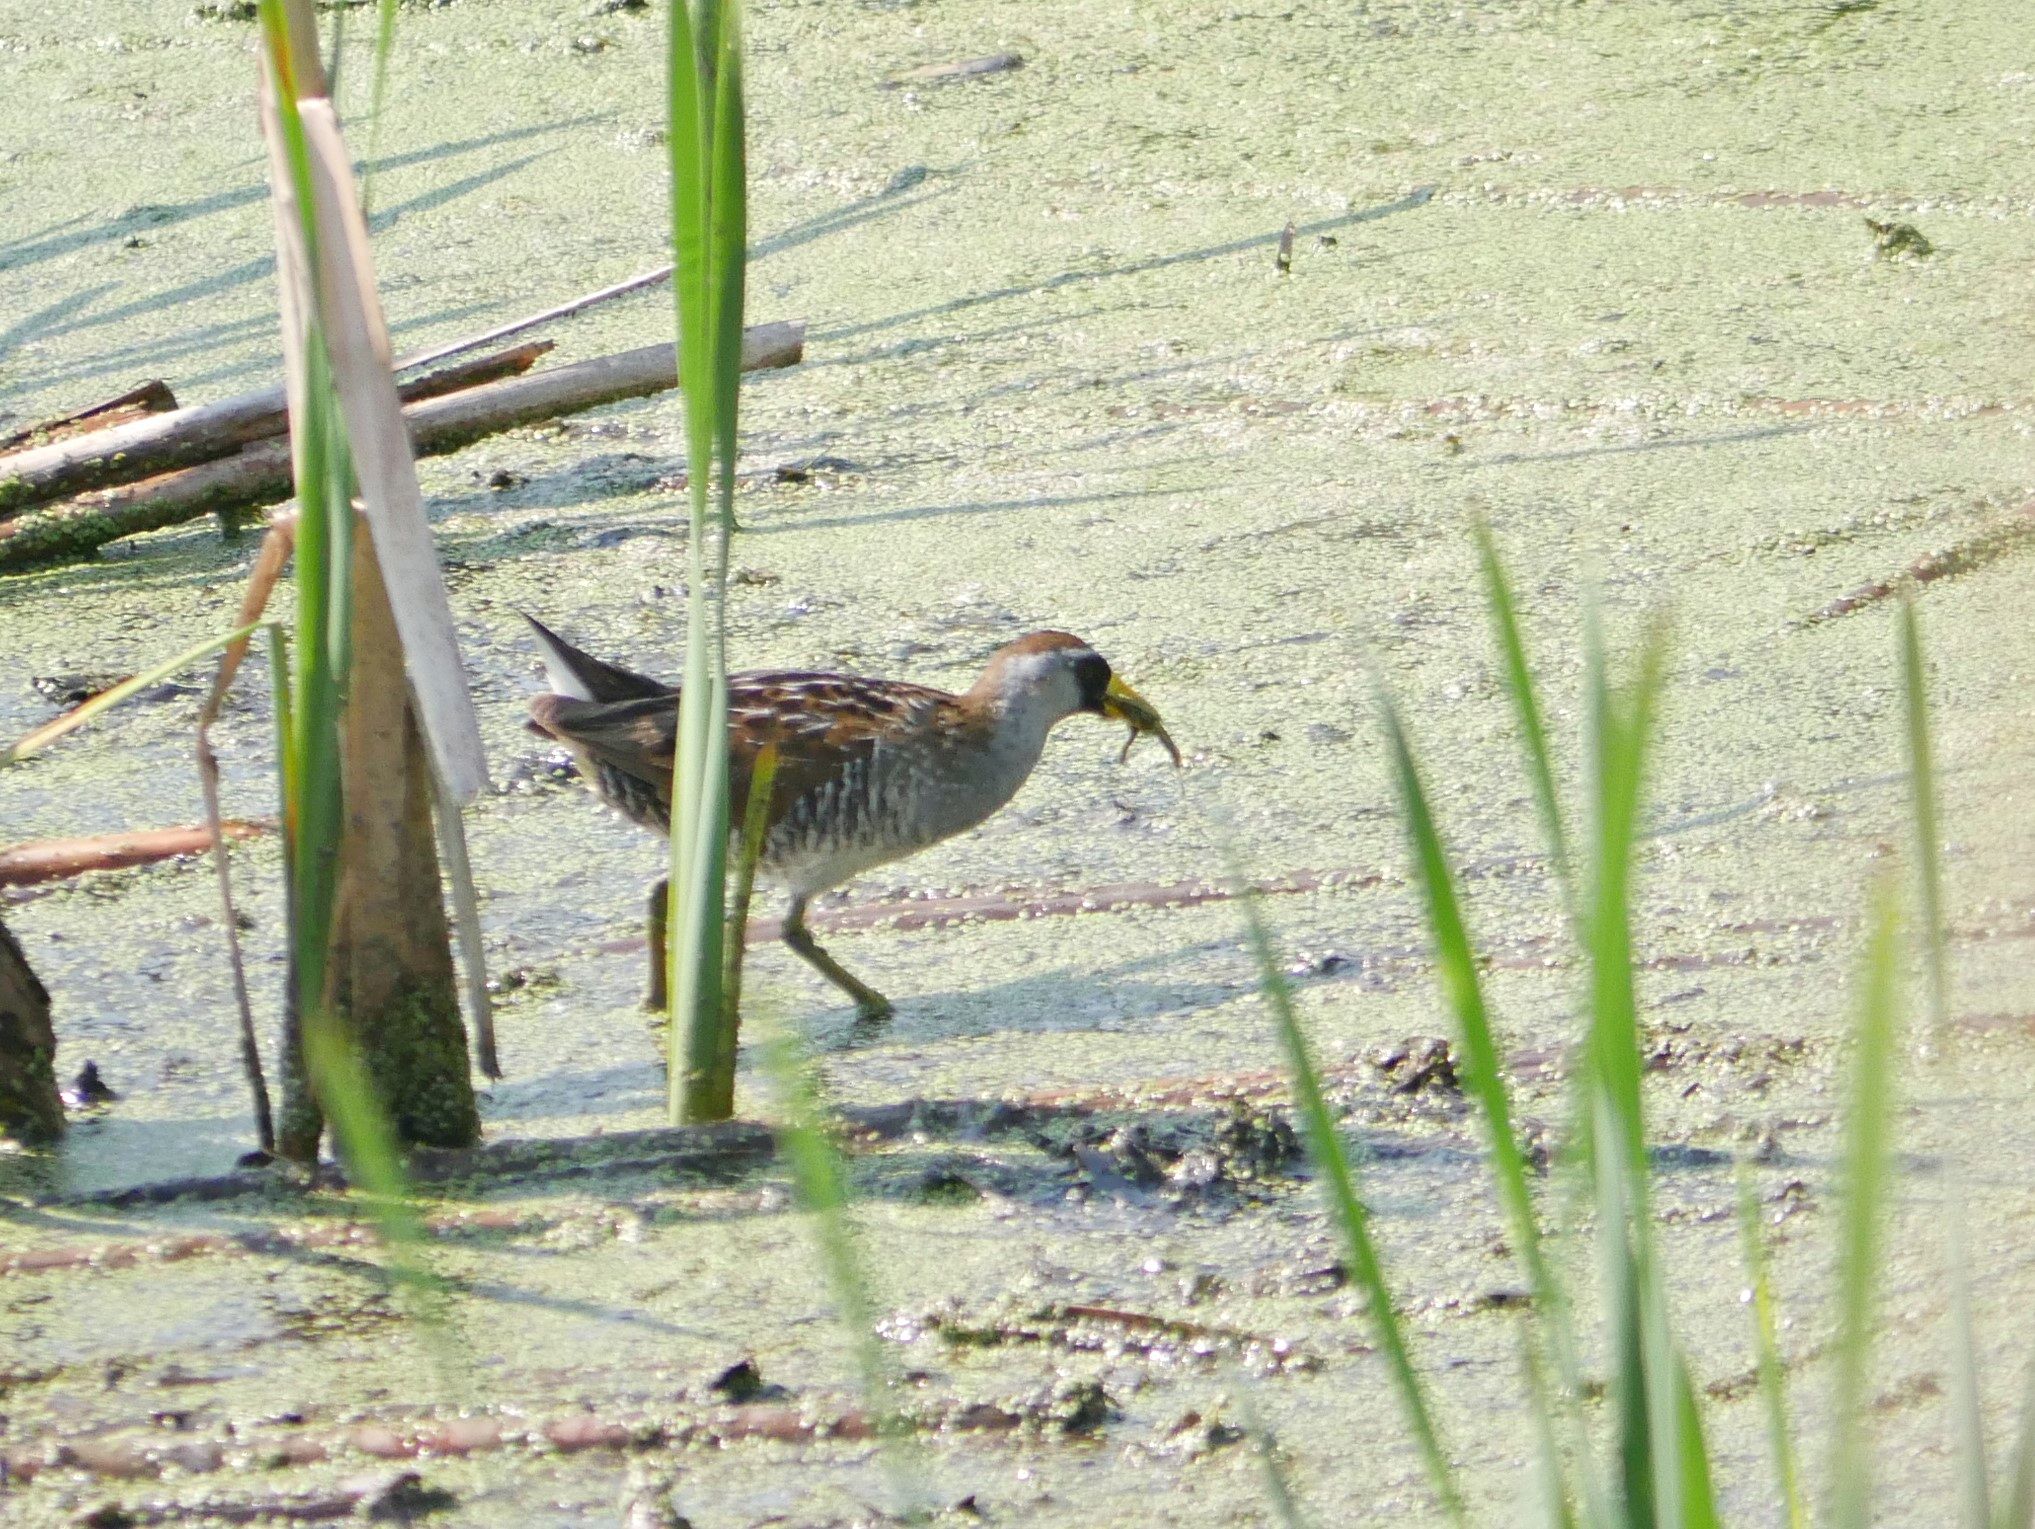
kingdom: Animalia
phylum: Chordata
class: Aves
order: Gruiformes
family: Rallidae
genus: Porzana
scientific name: Porzana carolina
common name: Sora
